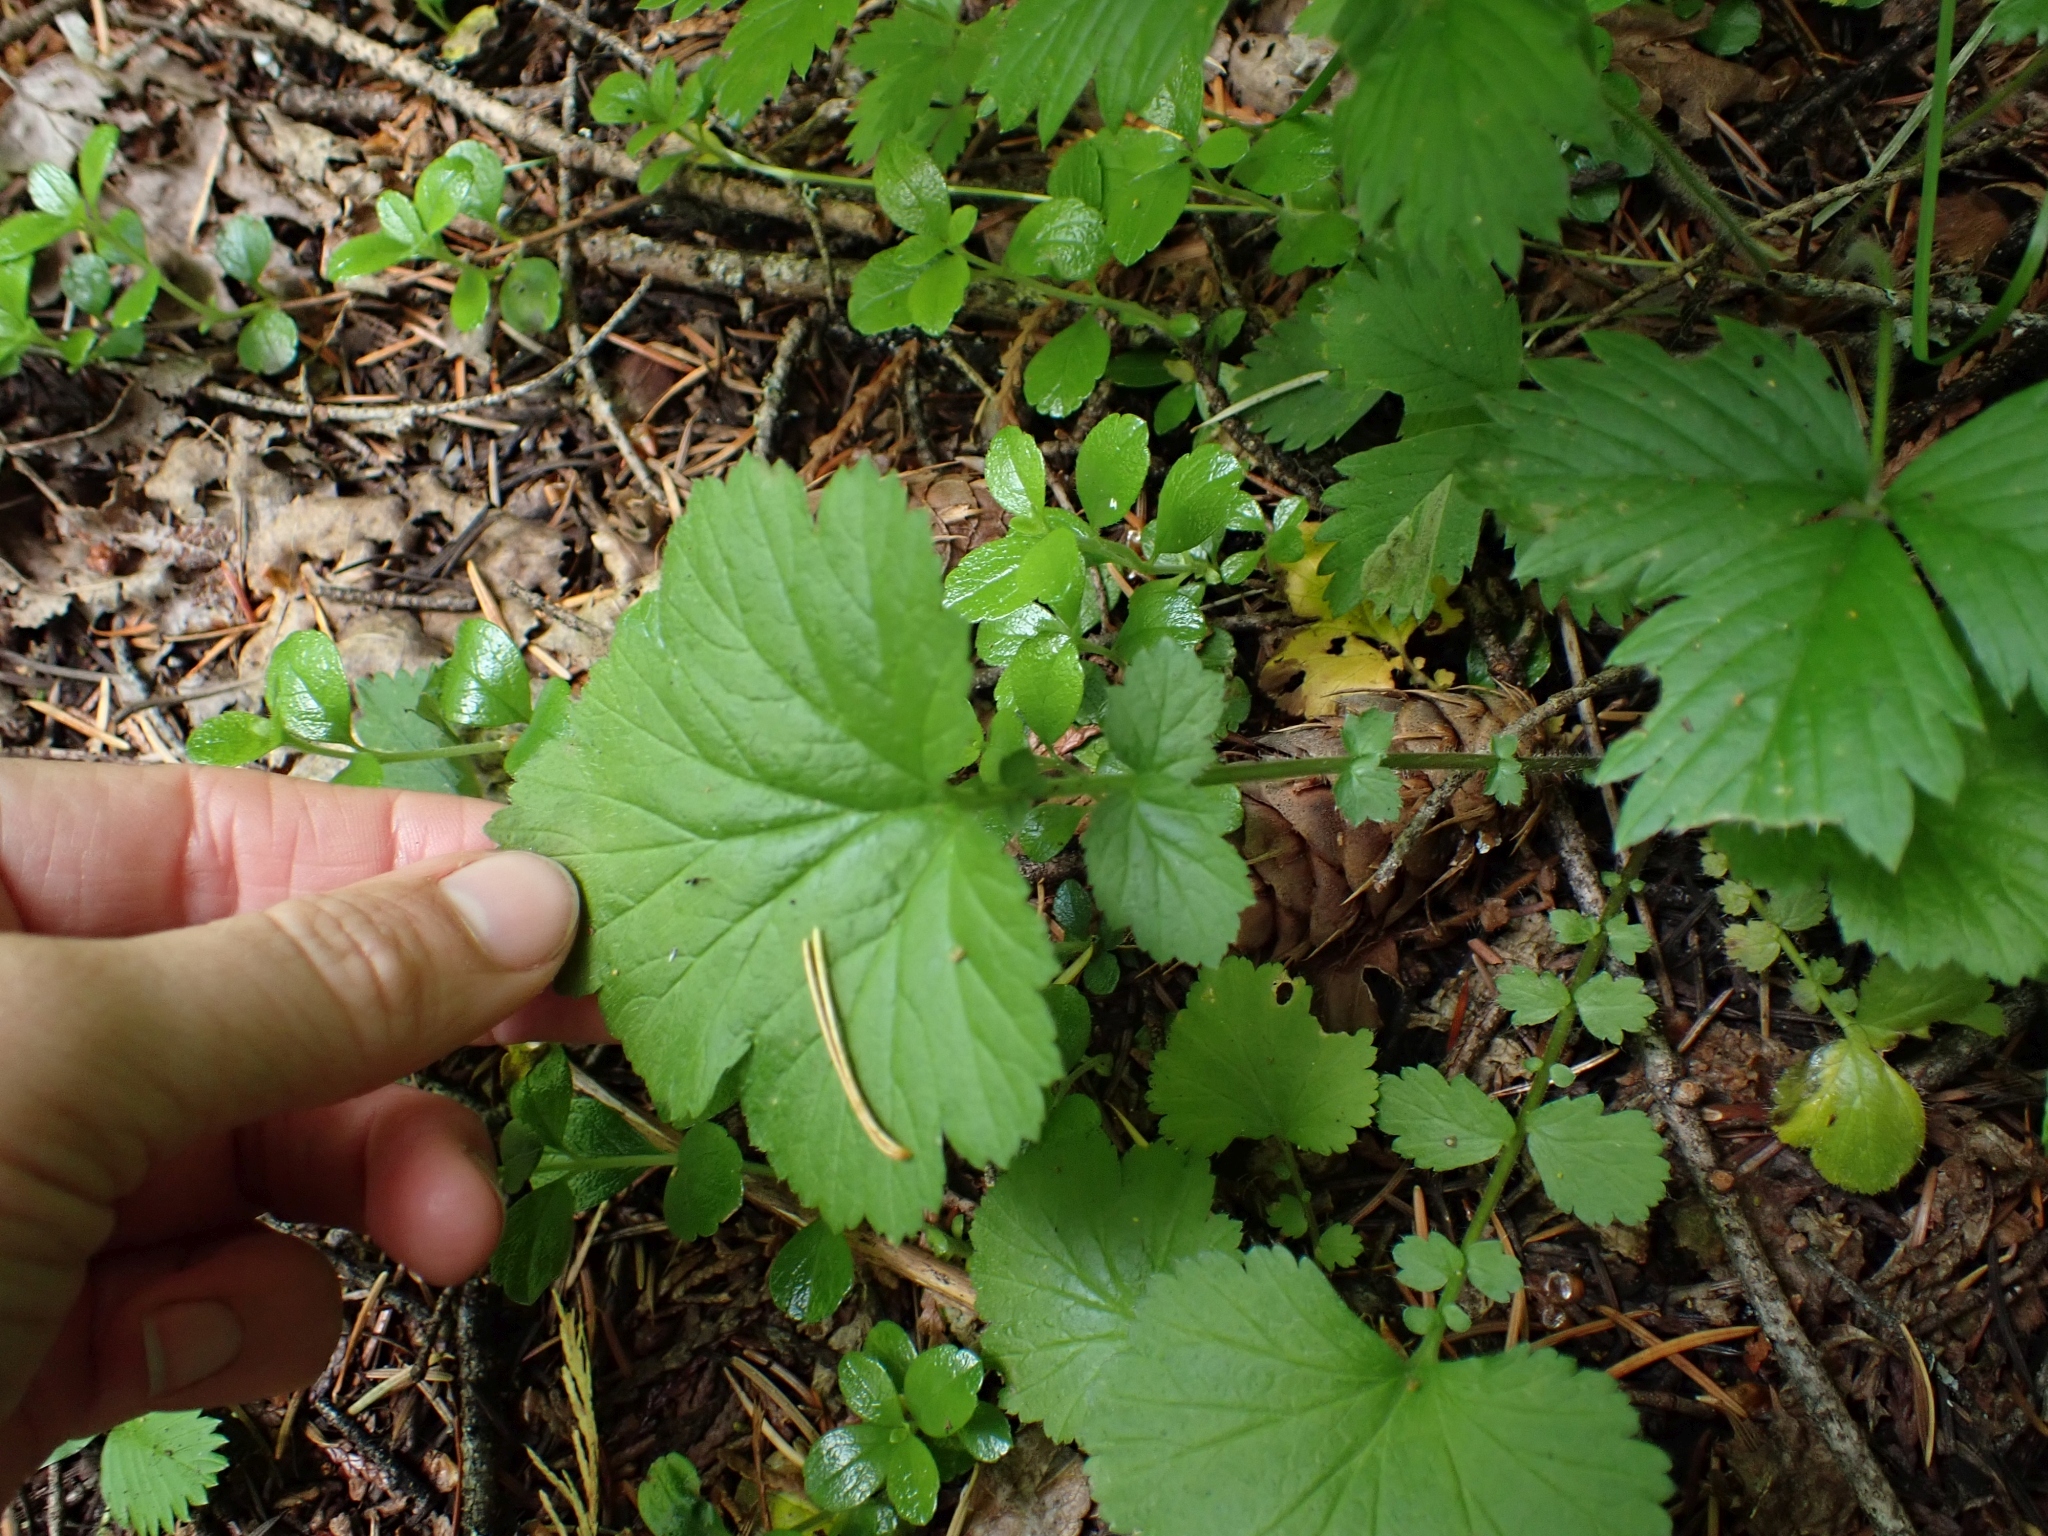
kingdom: Plantae
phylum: Tracheophyta
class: Magnoliopsida
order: Rosales
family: Rosaceae
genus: Geum
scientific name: Geum macrophyllum
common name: Large-leaved avens
